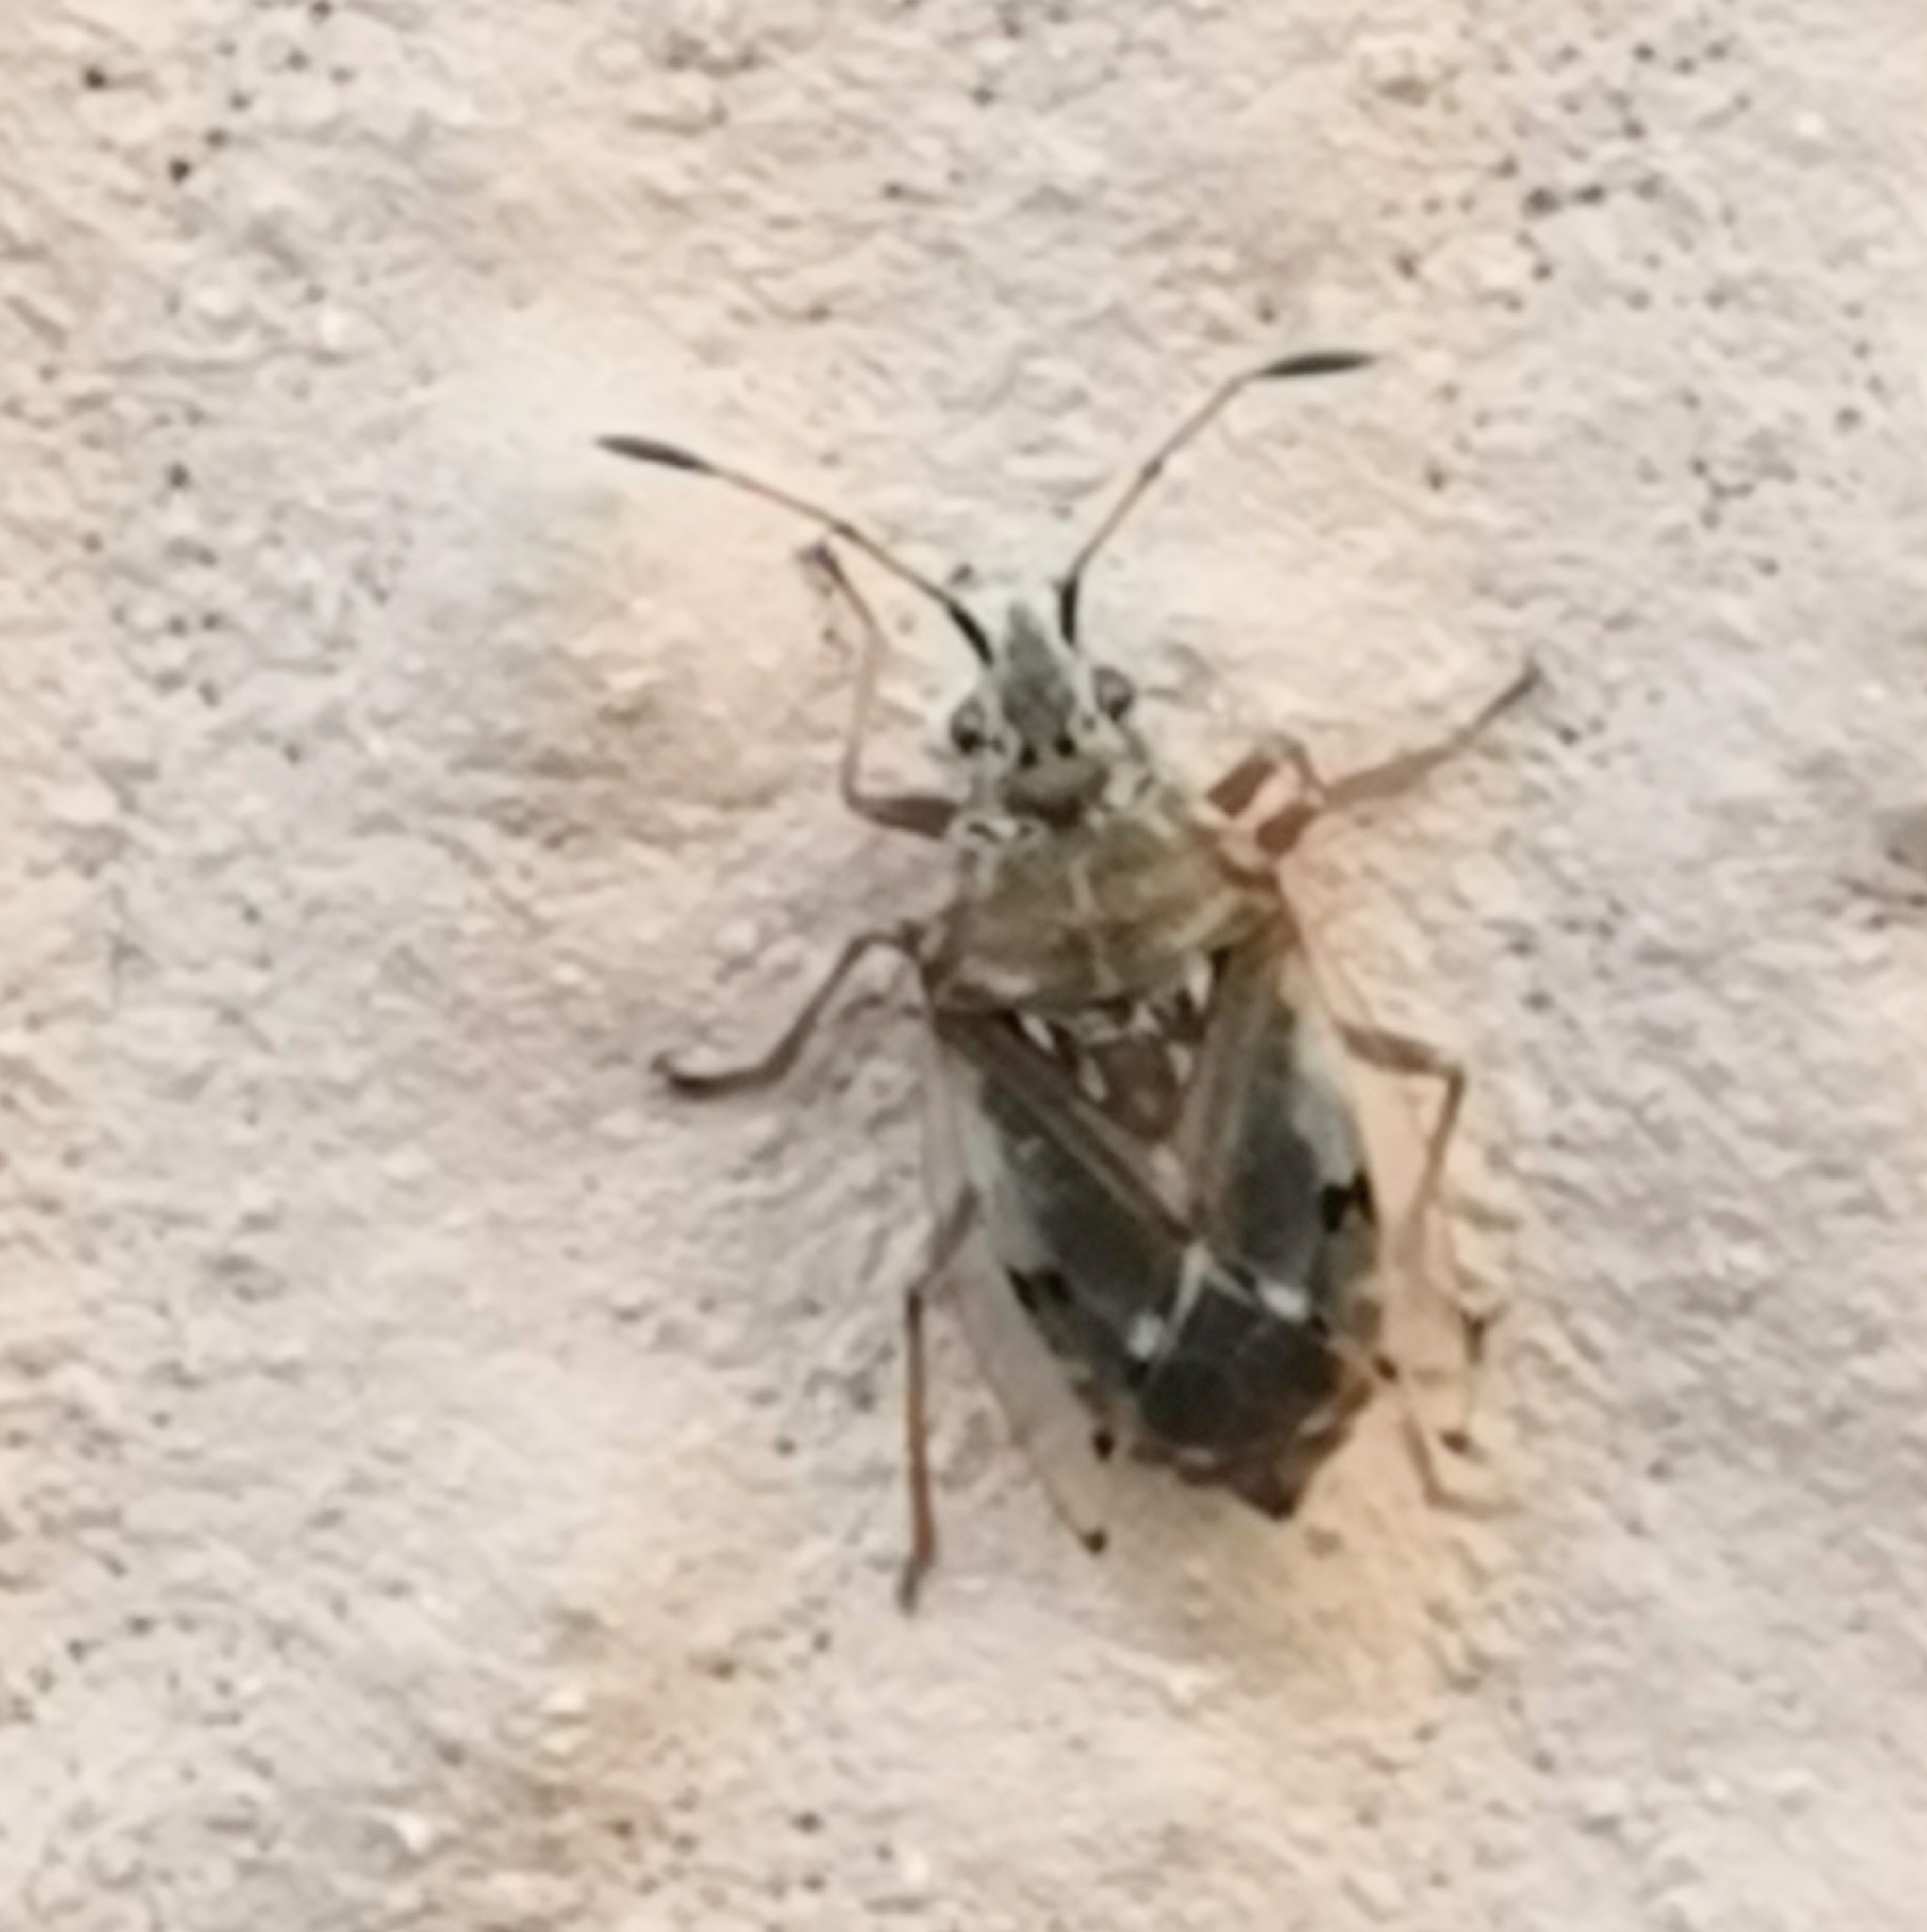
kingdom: Animalia
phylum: Arthropoda
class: Insecta
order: Hemiptera
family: Lygaeidae
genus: Kleidocerys
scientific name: Kleidocerys resedae
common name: Birch catkin bug
